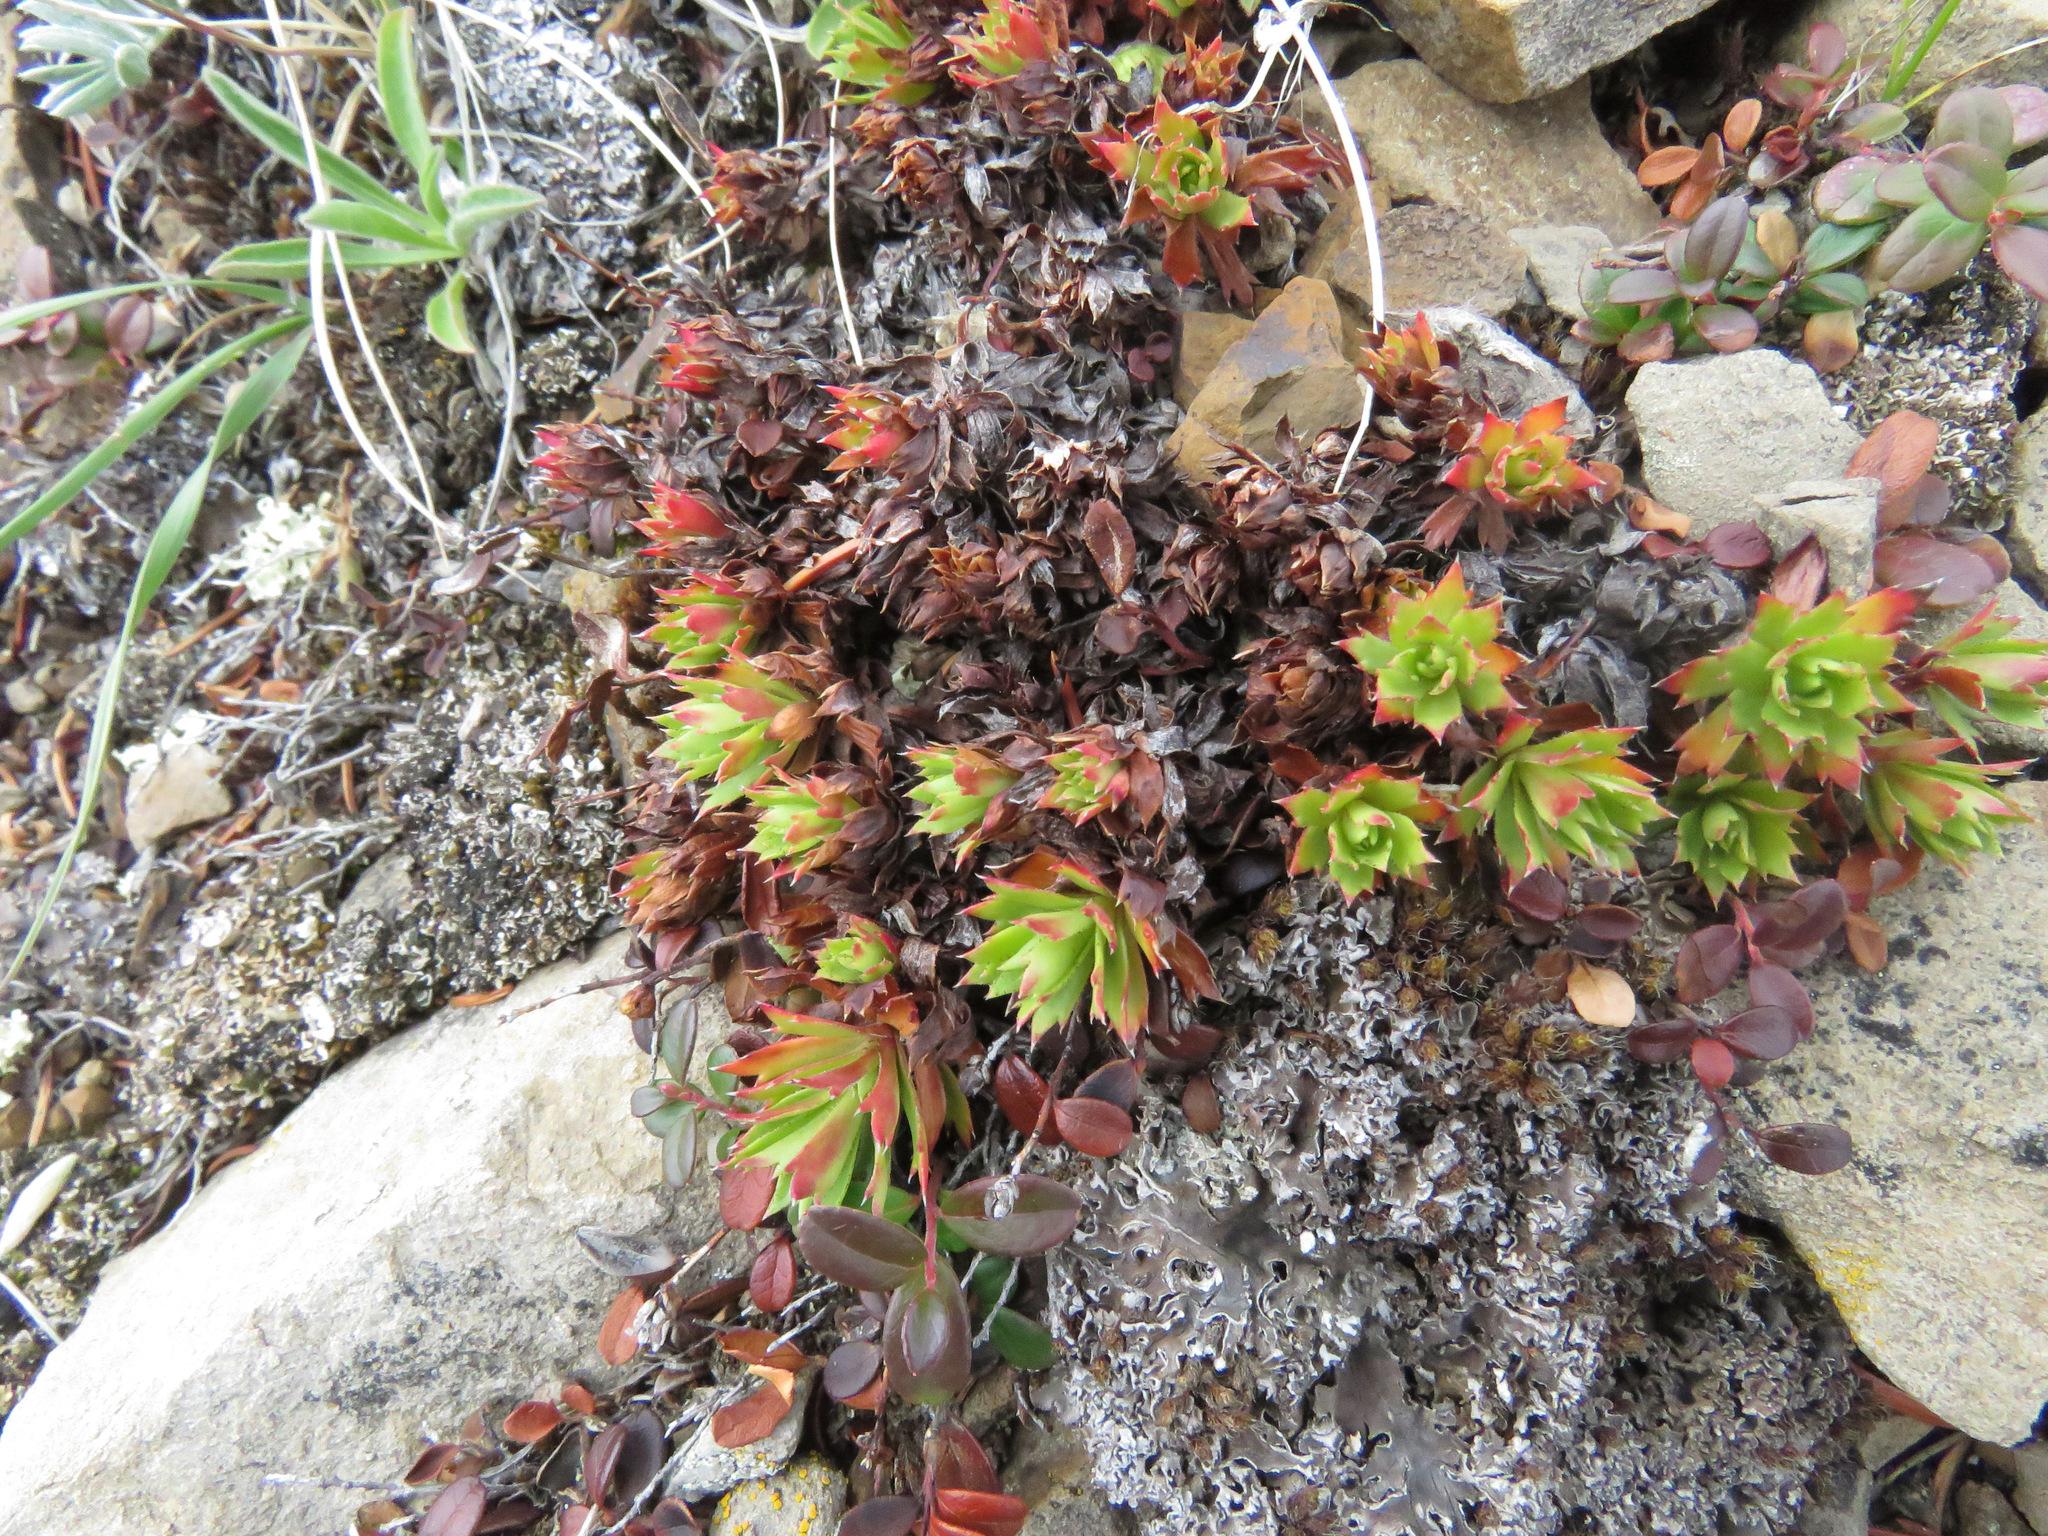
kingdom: Plantae
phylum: Tracheophyta
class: Magnoliopsida
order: Saxifragales
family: Saxifragaceae
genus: Saxifraga
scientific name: Saxifraga tricuspidata
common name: Prickly saxifrage
